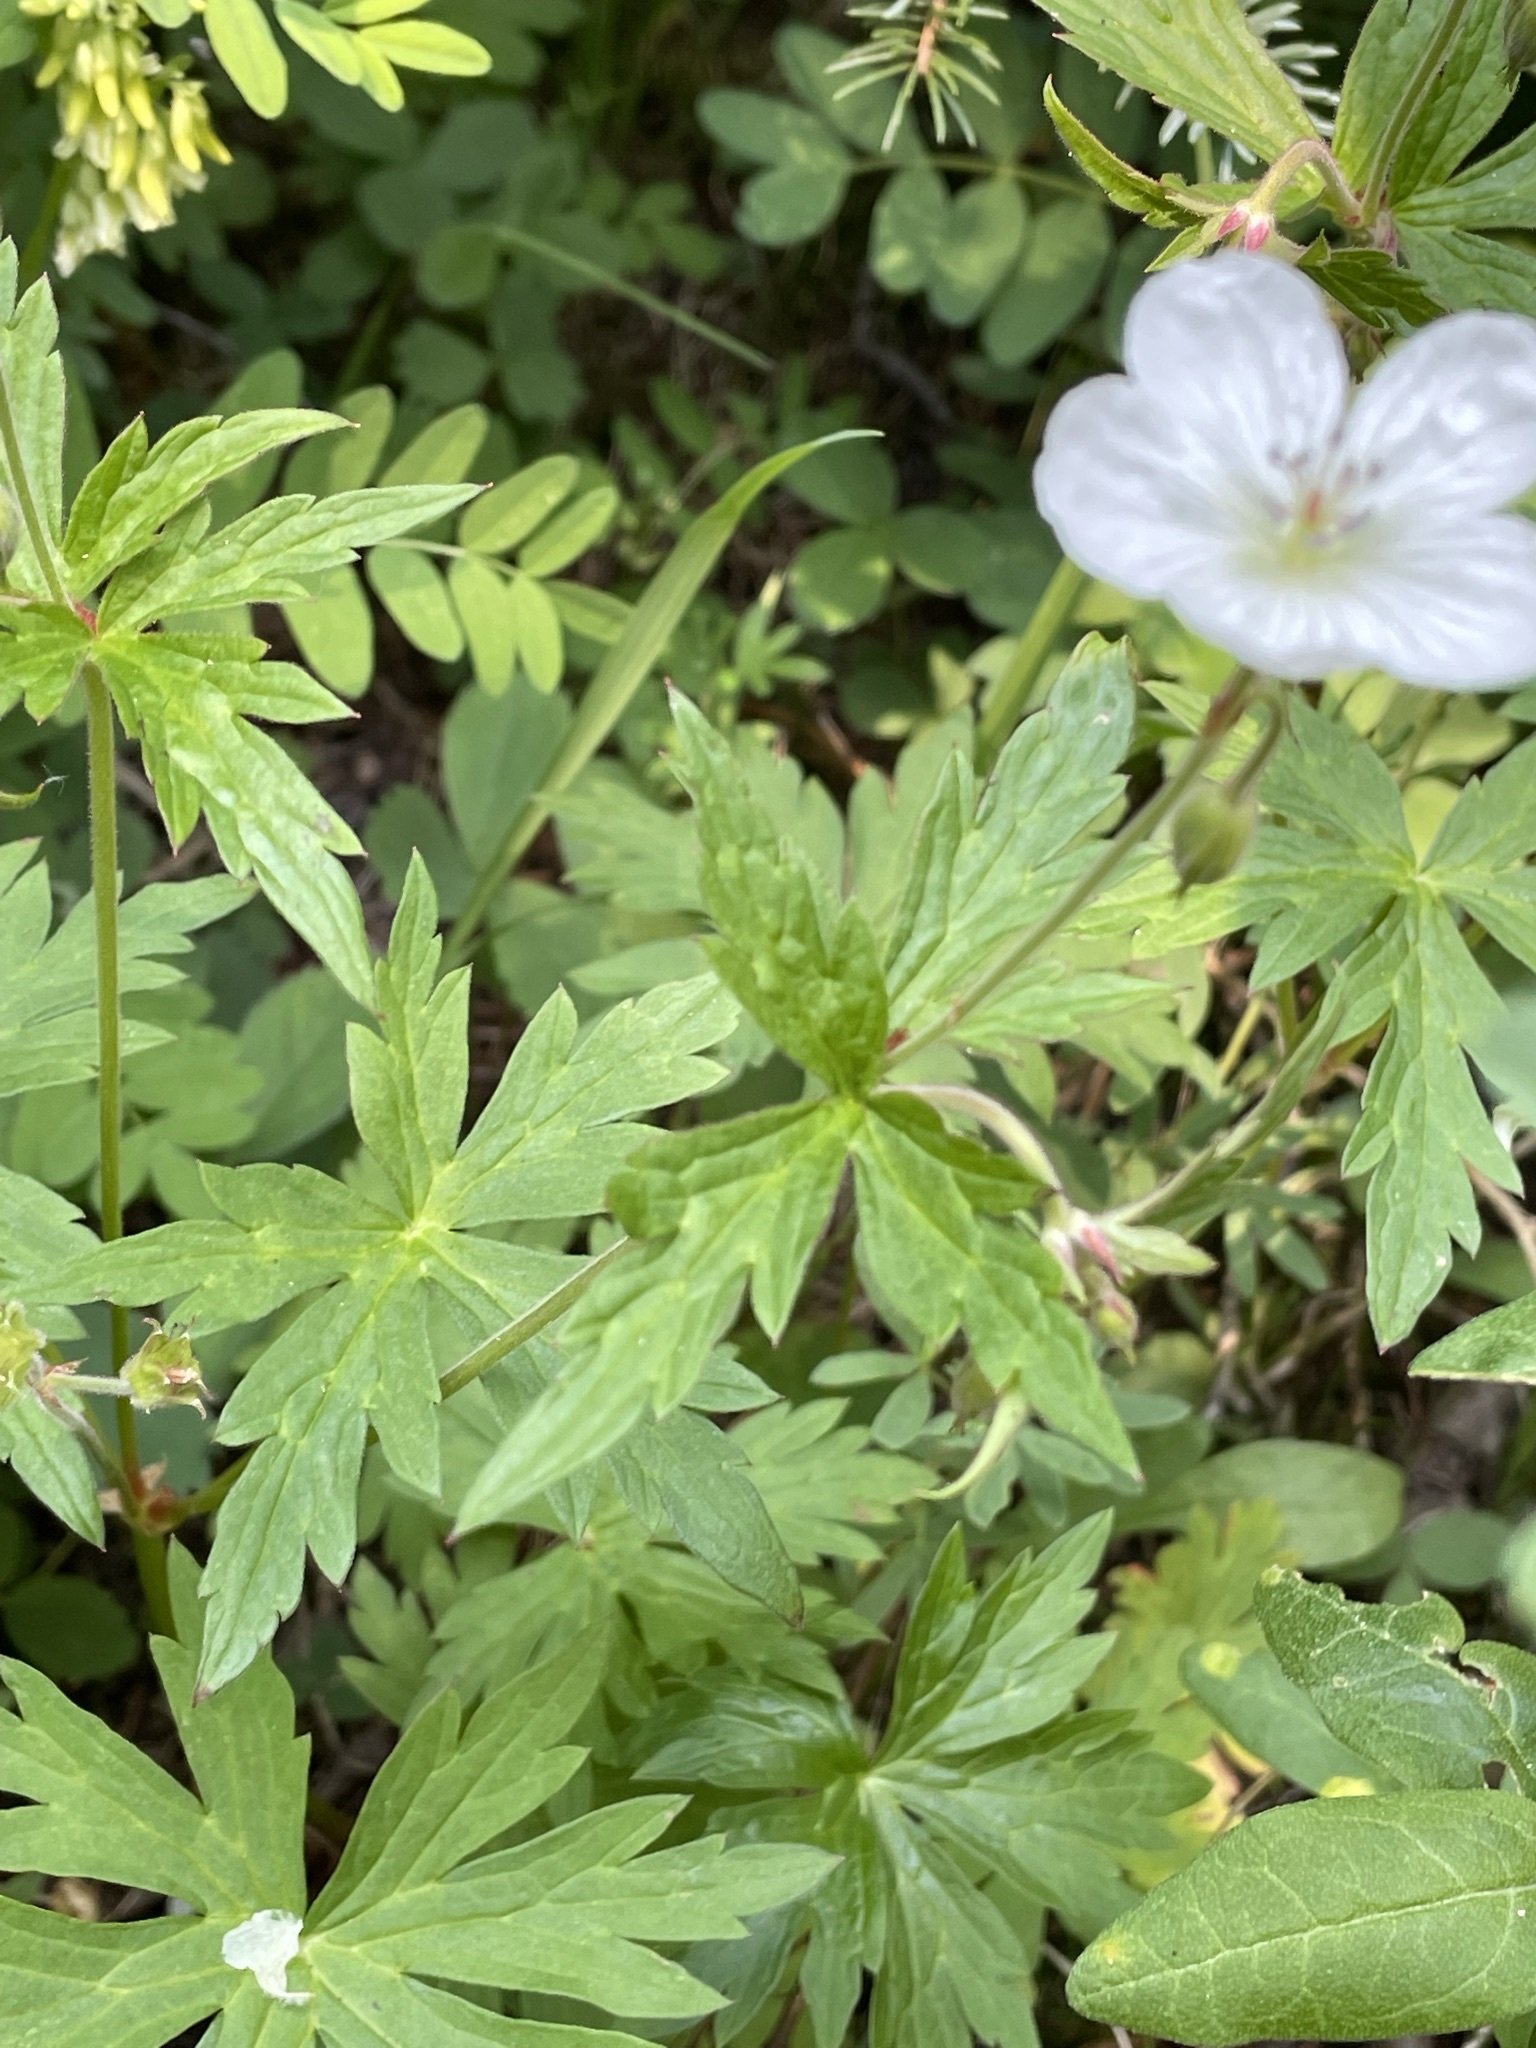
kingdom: Plantae
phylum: Tracheophyta
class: Magnoliopsida
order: Geraniales
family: Geraniaceae
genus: Geranium
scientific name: Geranium richardsonii
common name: Richardson's crane's-bill
